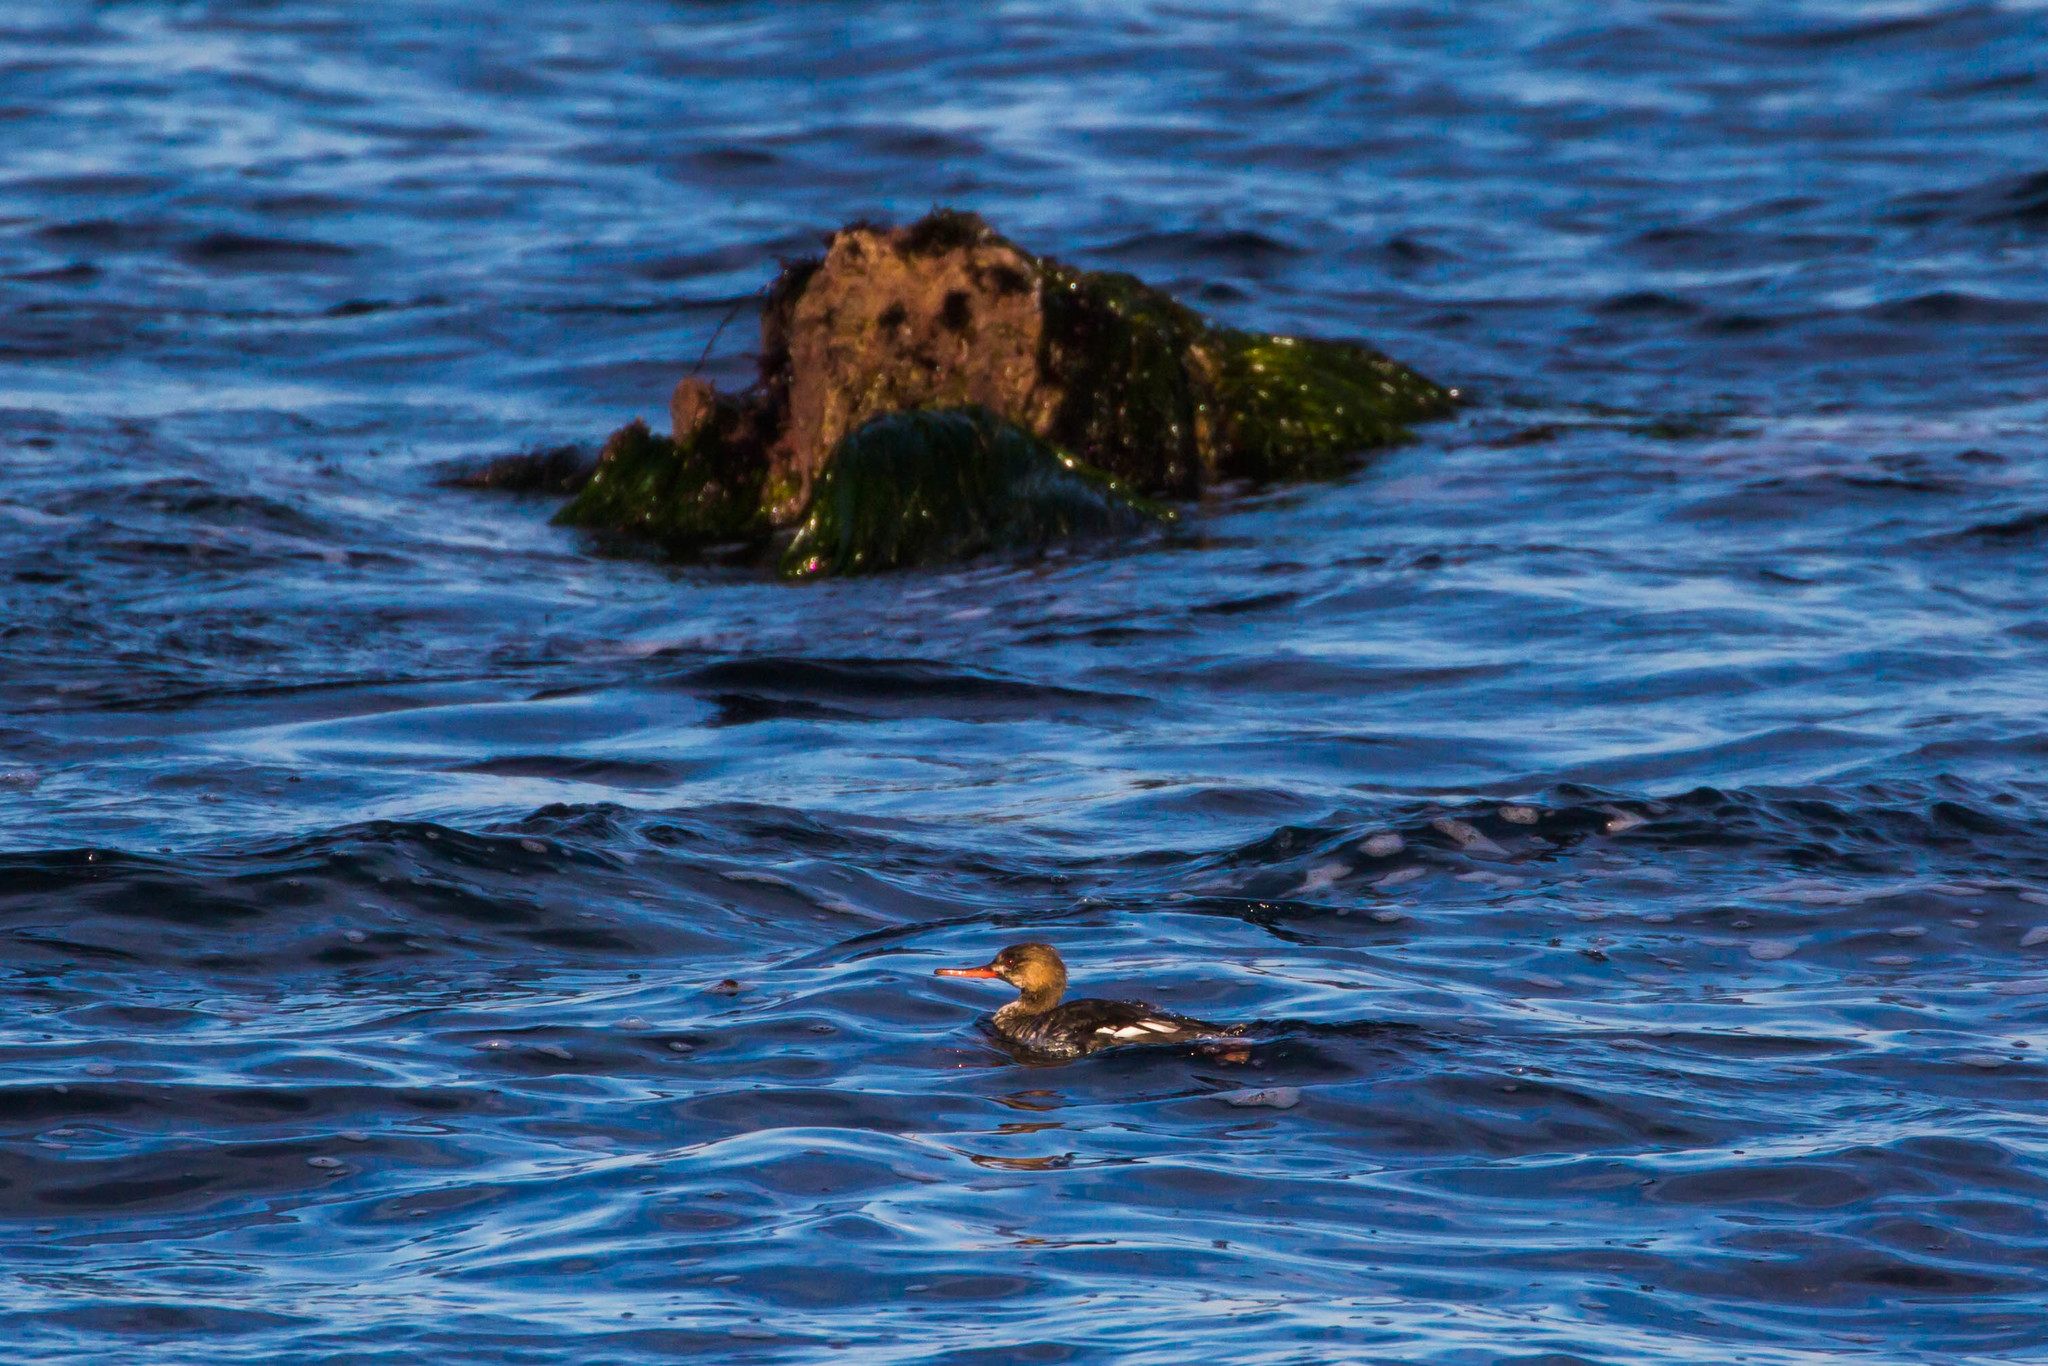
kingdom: Animalia
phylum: Chordata
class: Aves
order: Anseriformes
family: Anatidae
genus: Mergus
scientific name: Mergus serrator
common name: Red-breasted merganser
